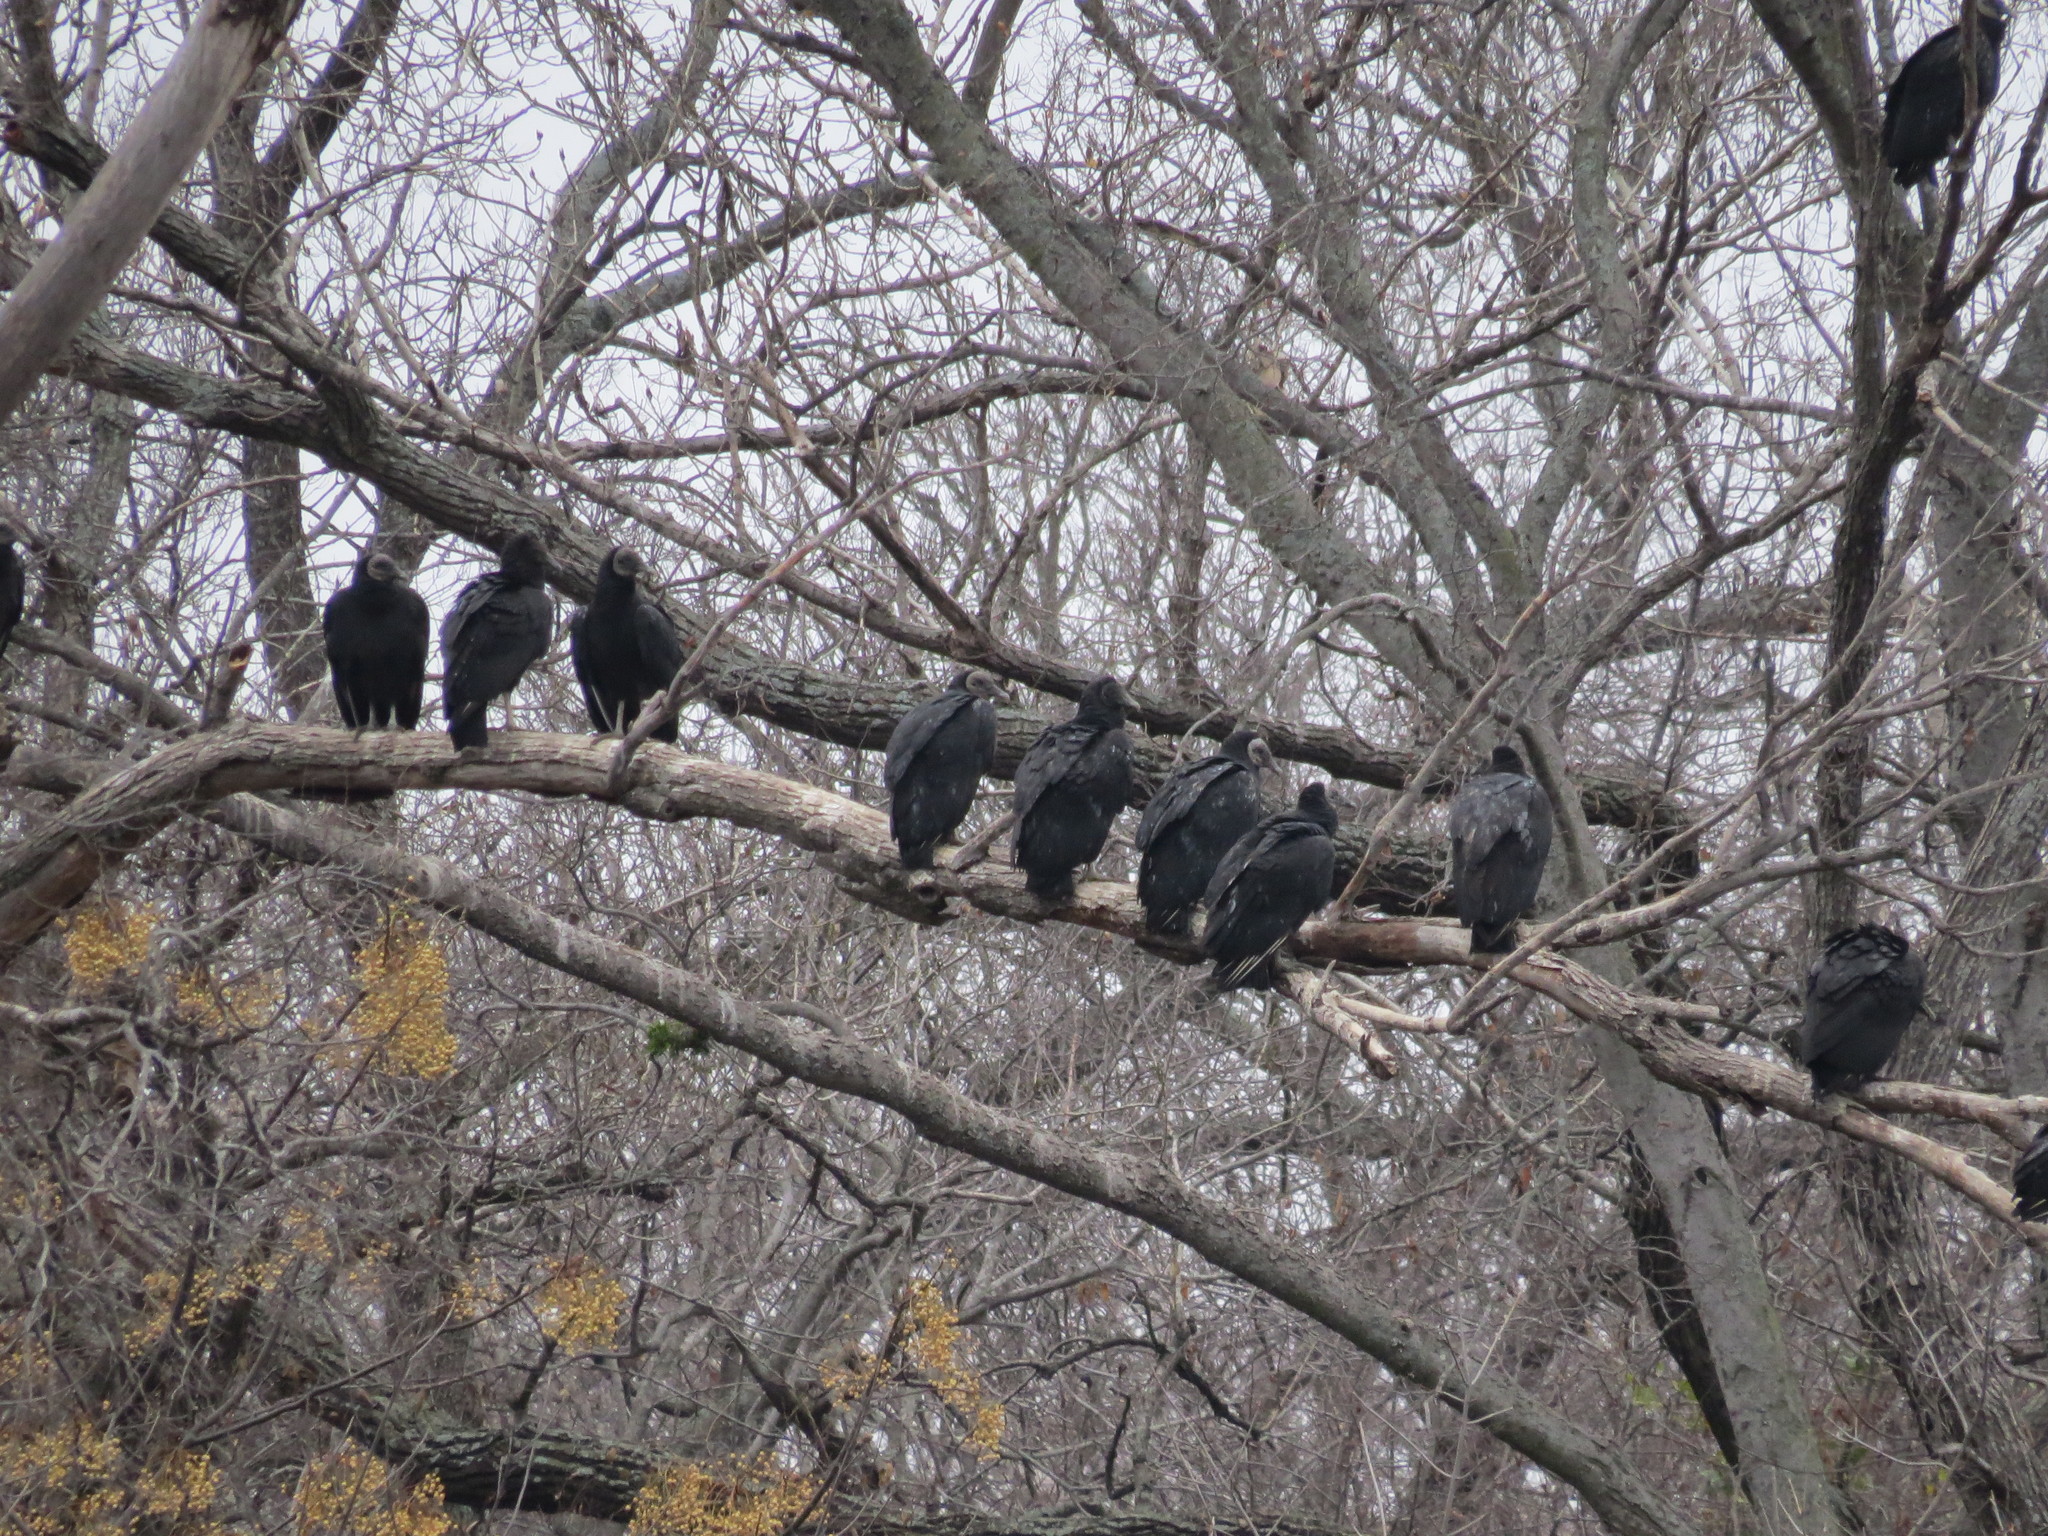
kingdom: Animalia
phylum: Chordata
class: Aves
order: Accipitriformes
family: Cathartidae
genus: Coragyps
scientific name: Coragyps atratus
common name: Black vulture
